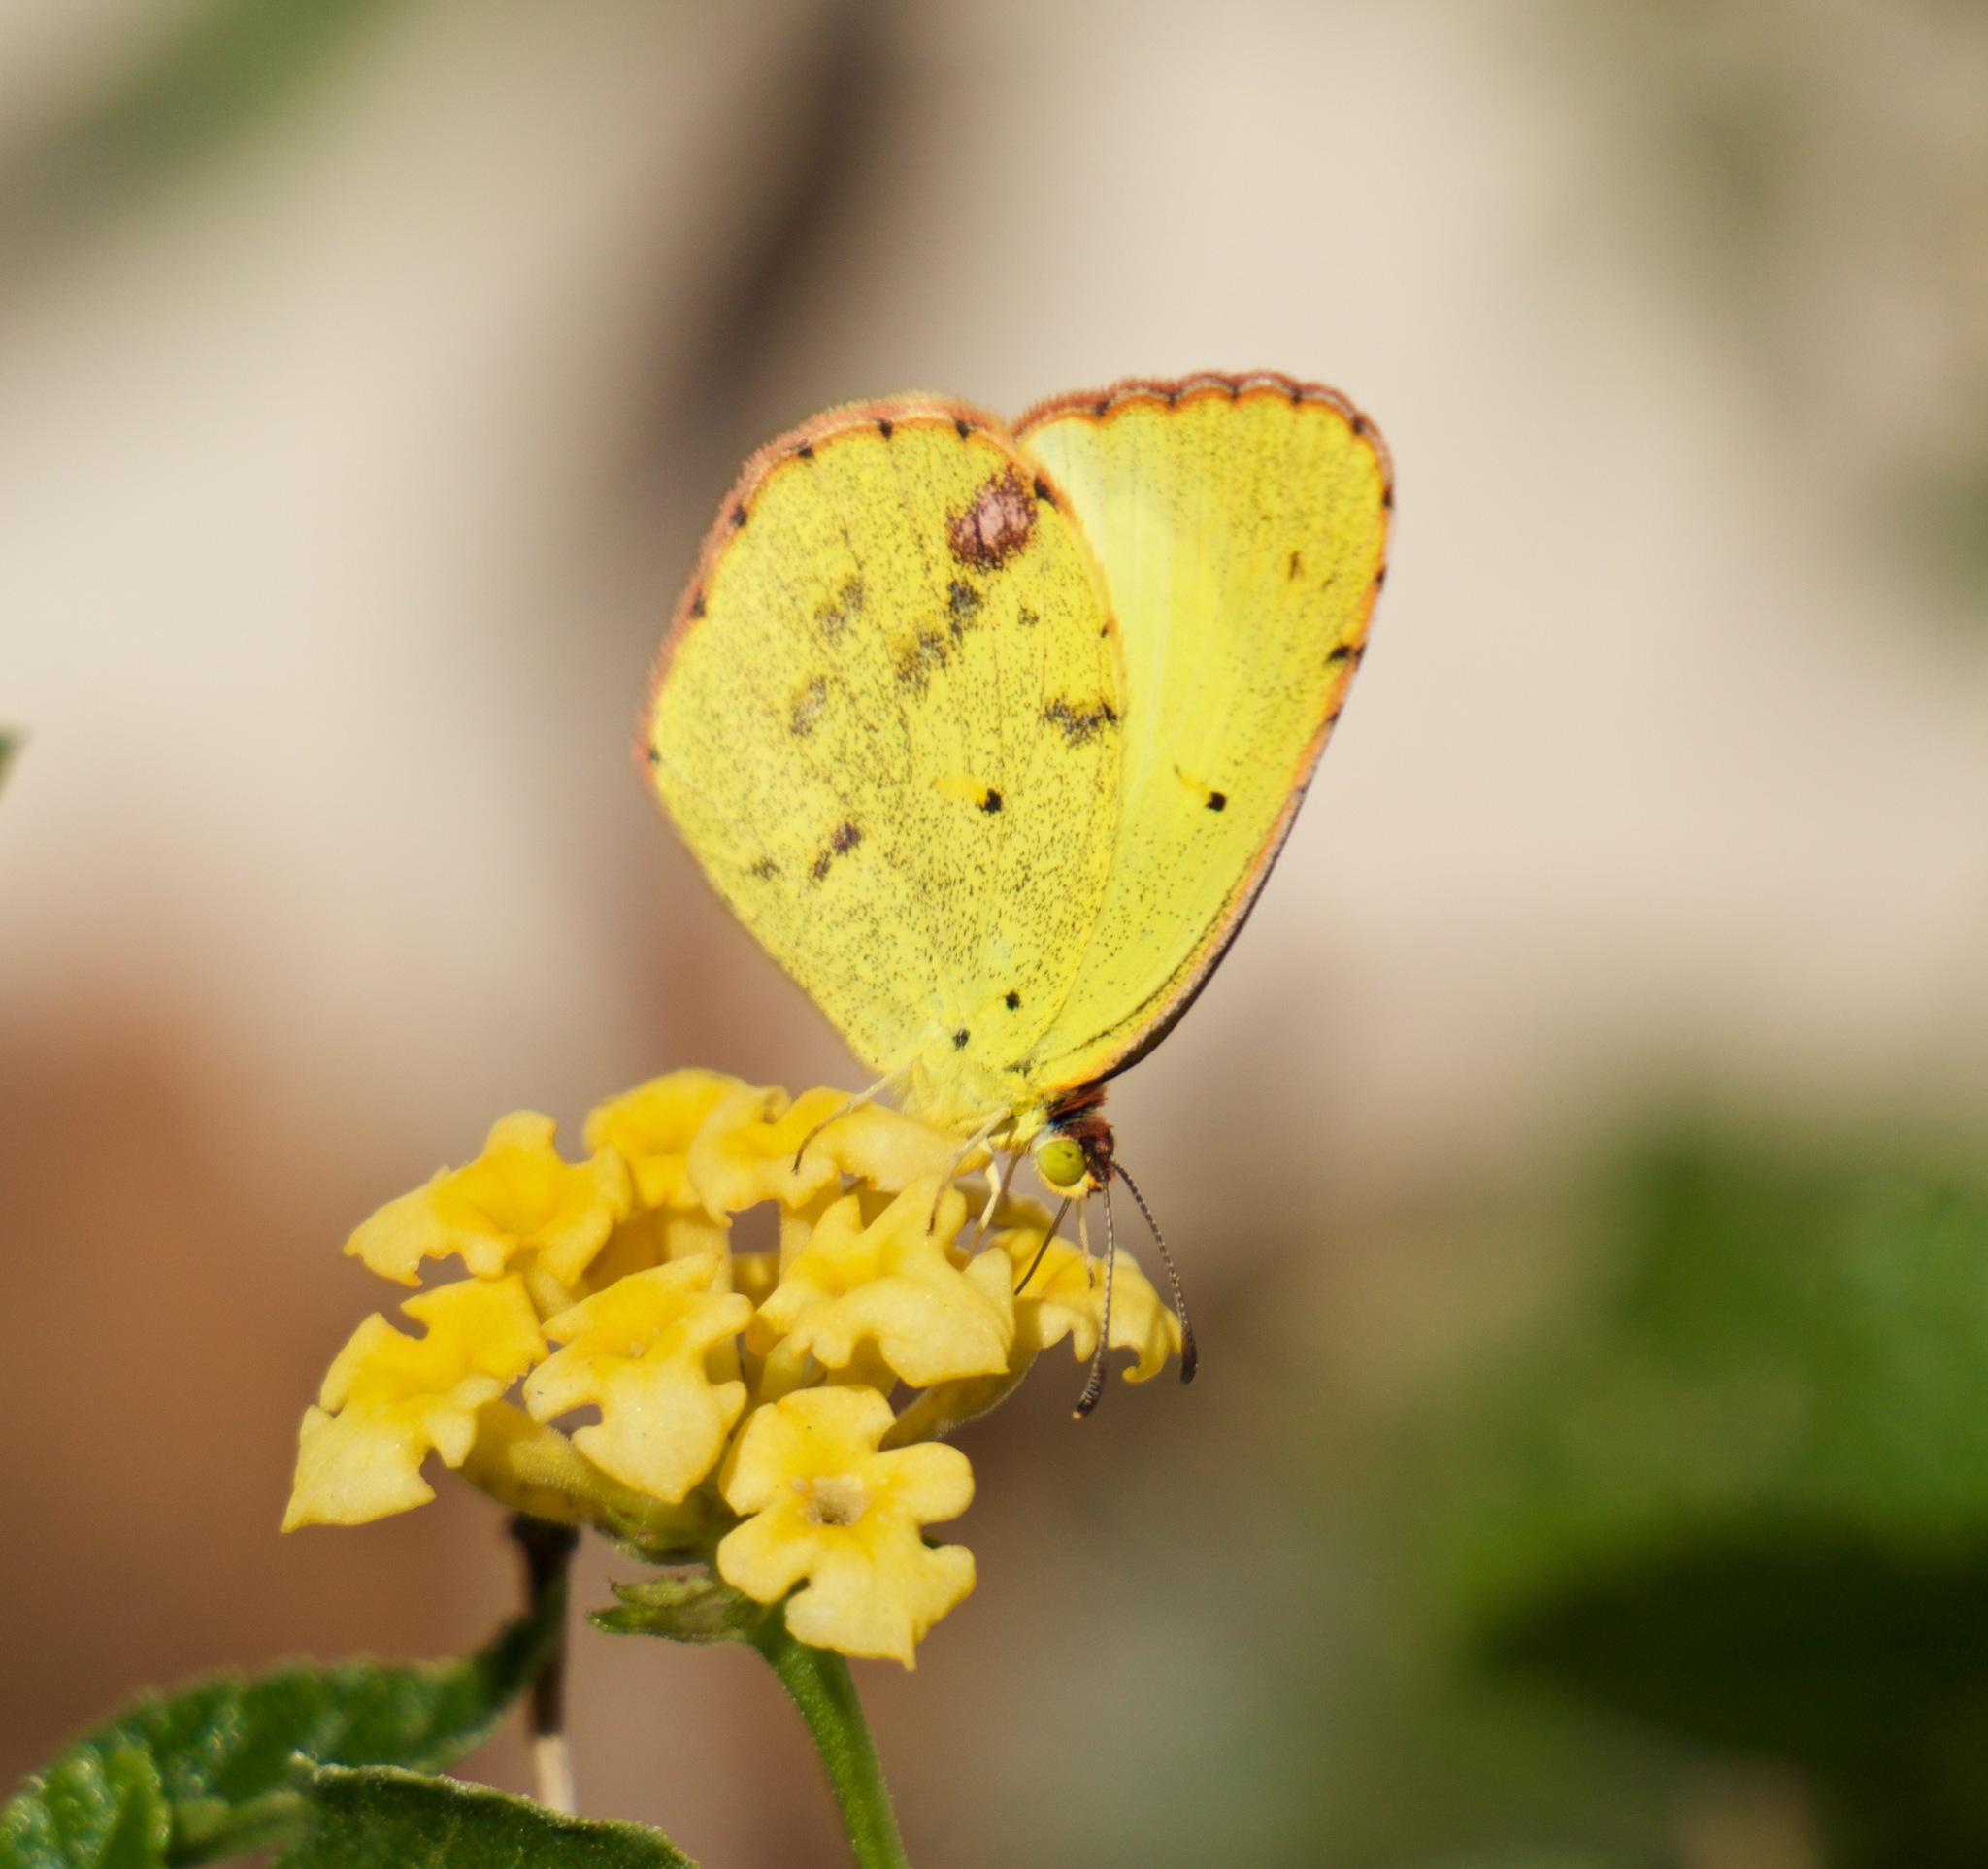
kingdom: Animalia
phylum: Arthropoda
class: Insecta
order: Lepidoptera
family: Pieridae
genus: Pyrisitia
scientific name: Pyrisitia lisa
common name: Little yellow
